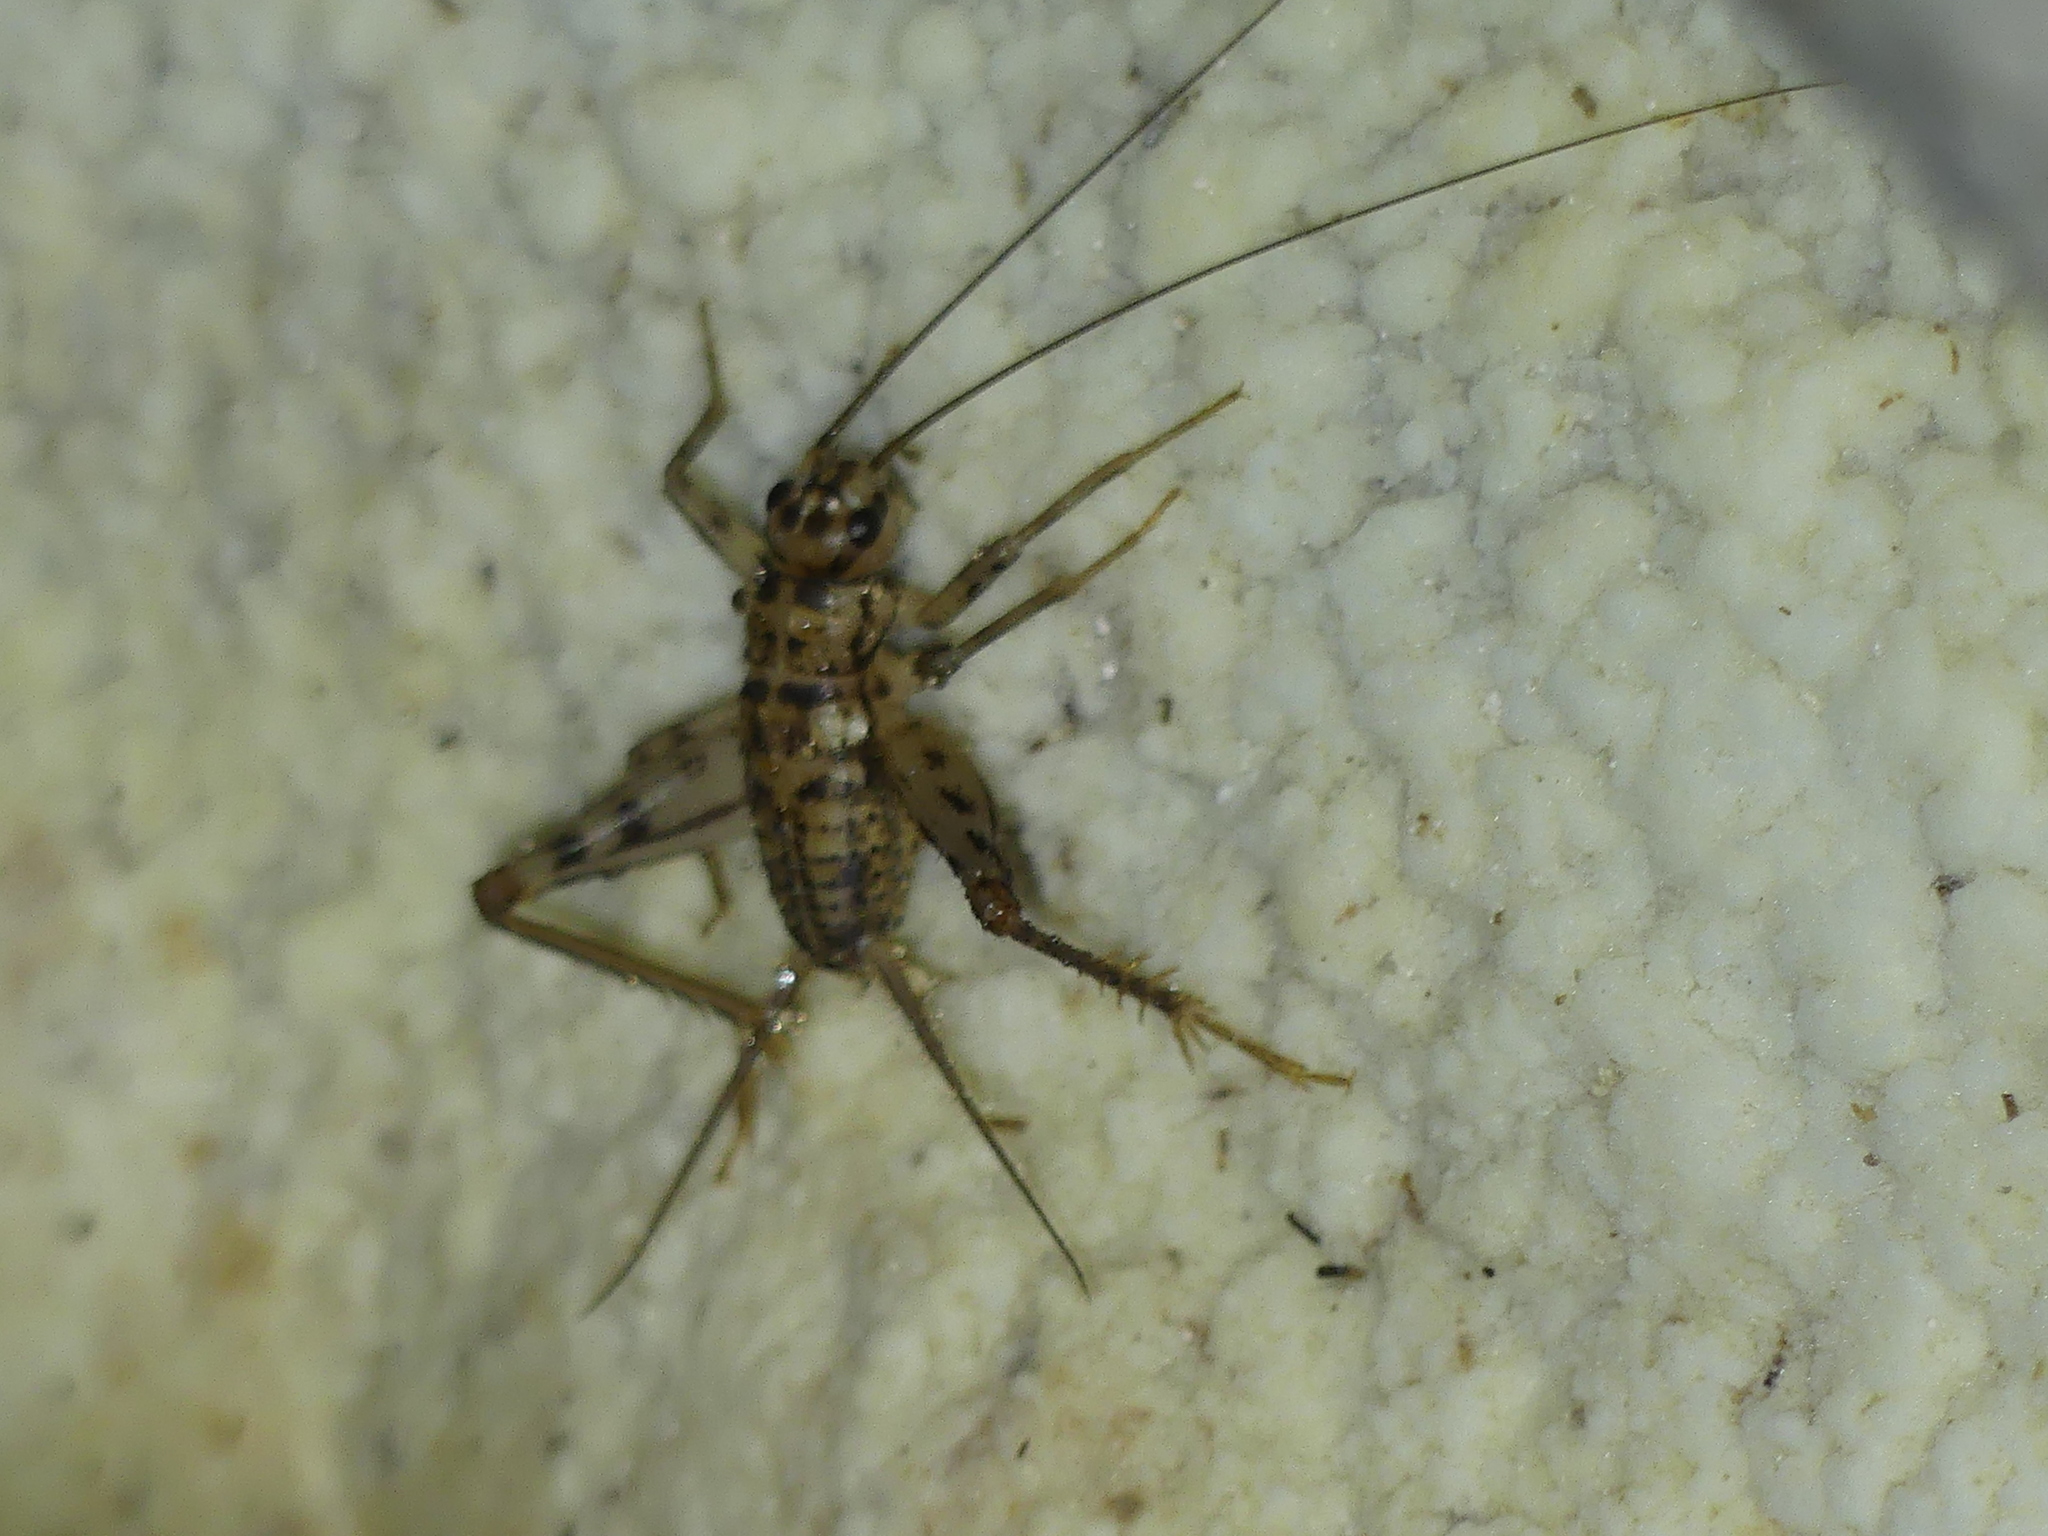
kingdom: Animalia
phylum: Arthropoda
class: Insecta
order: Orthoptera
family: Gryllidae
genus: Gryllomorpha
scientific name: Gryllomorpha dalmatina
